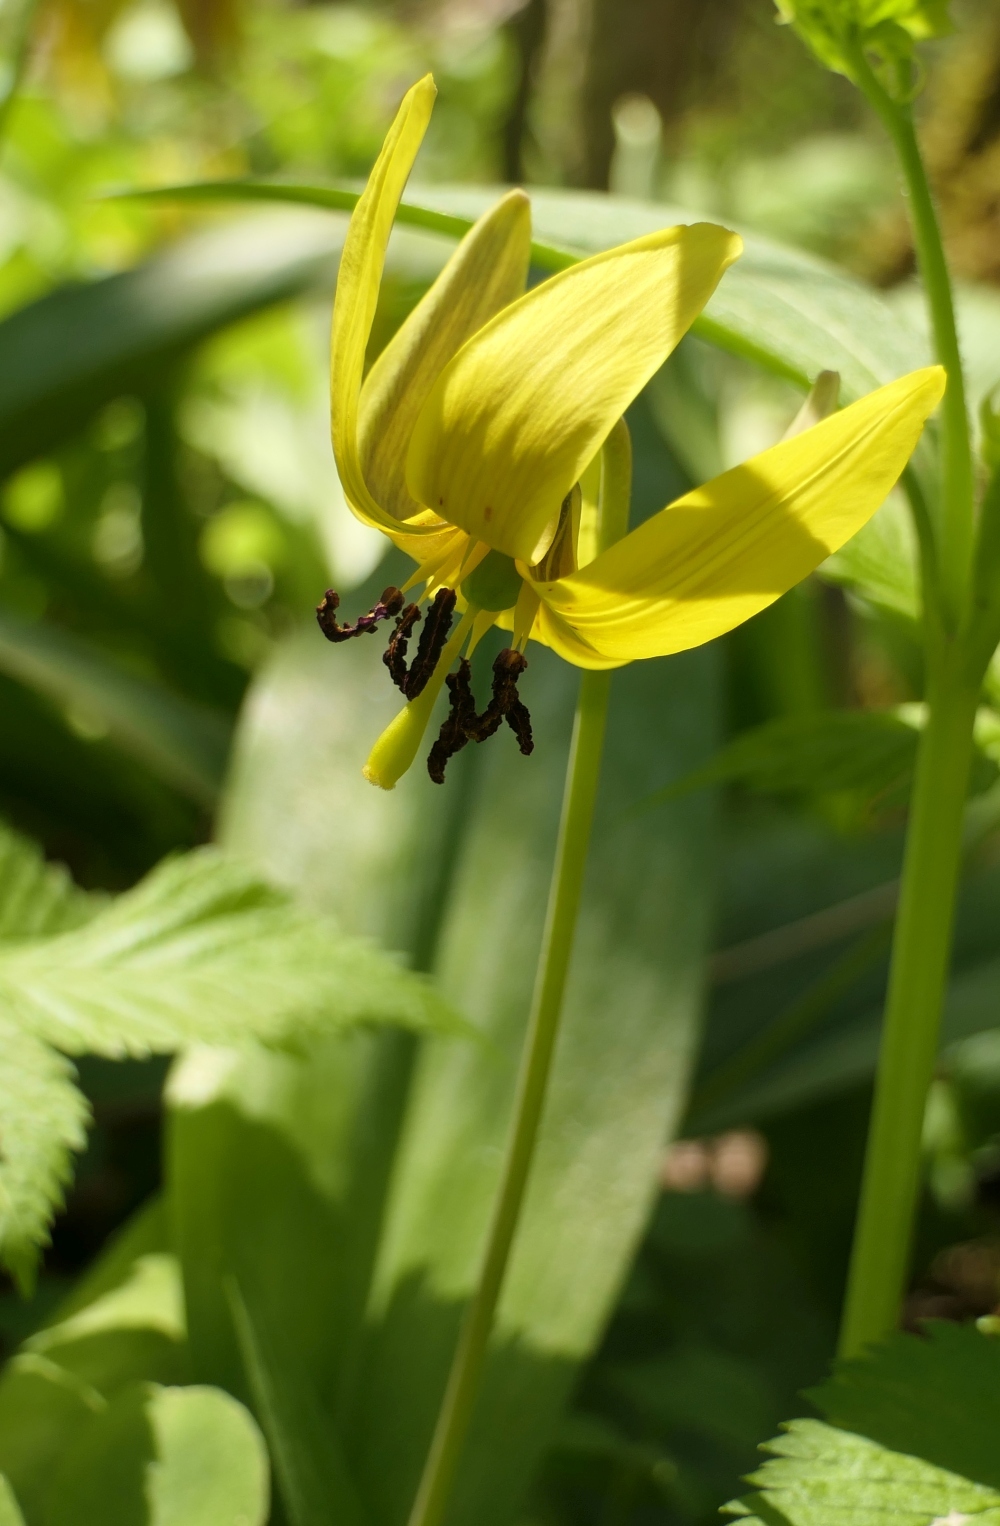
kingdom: Plantae
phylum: Tracheophyta
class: Liliopsida
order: Liliales
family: Liliaceae
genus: Erythronium
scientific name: Erythronium americanum
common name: Yellow adder's-tongue
